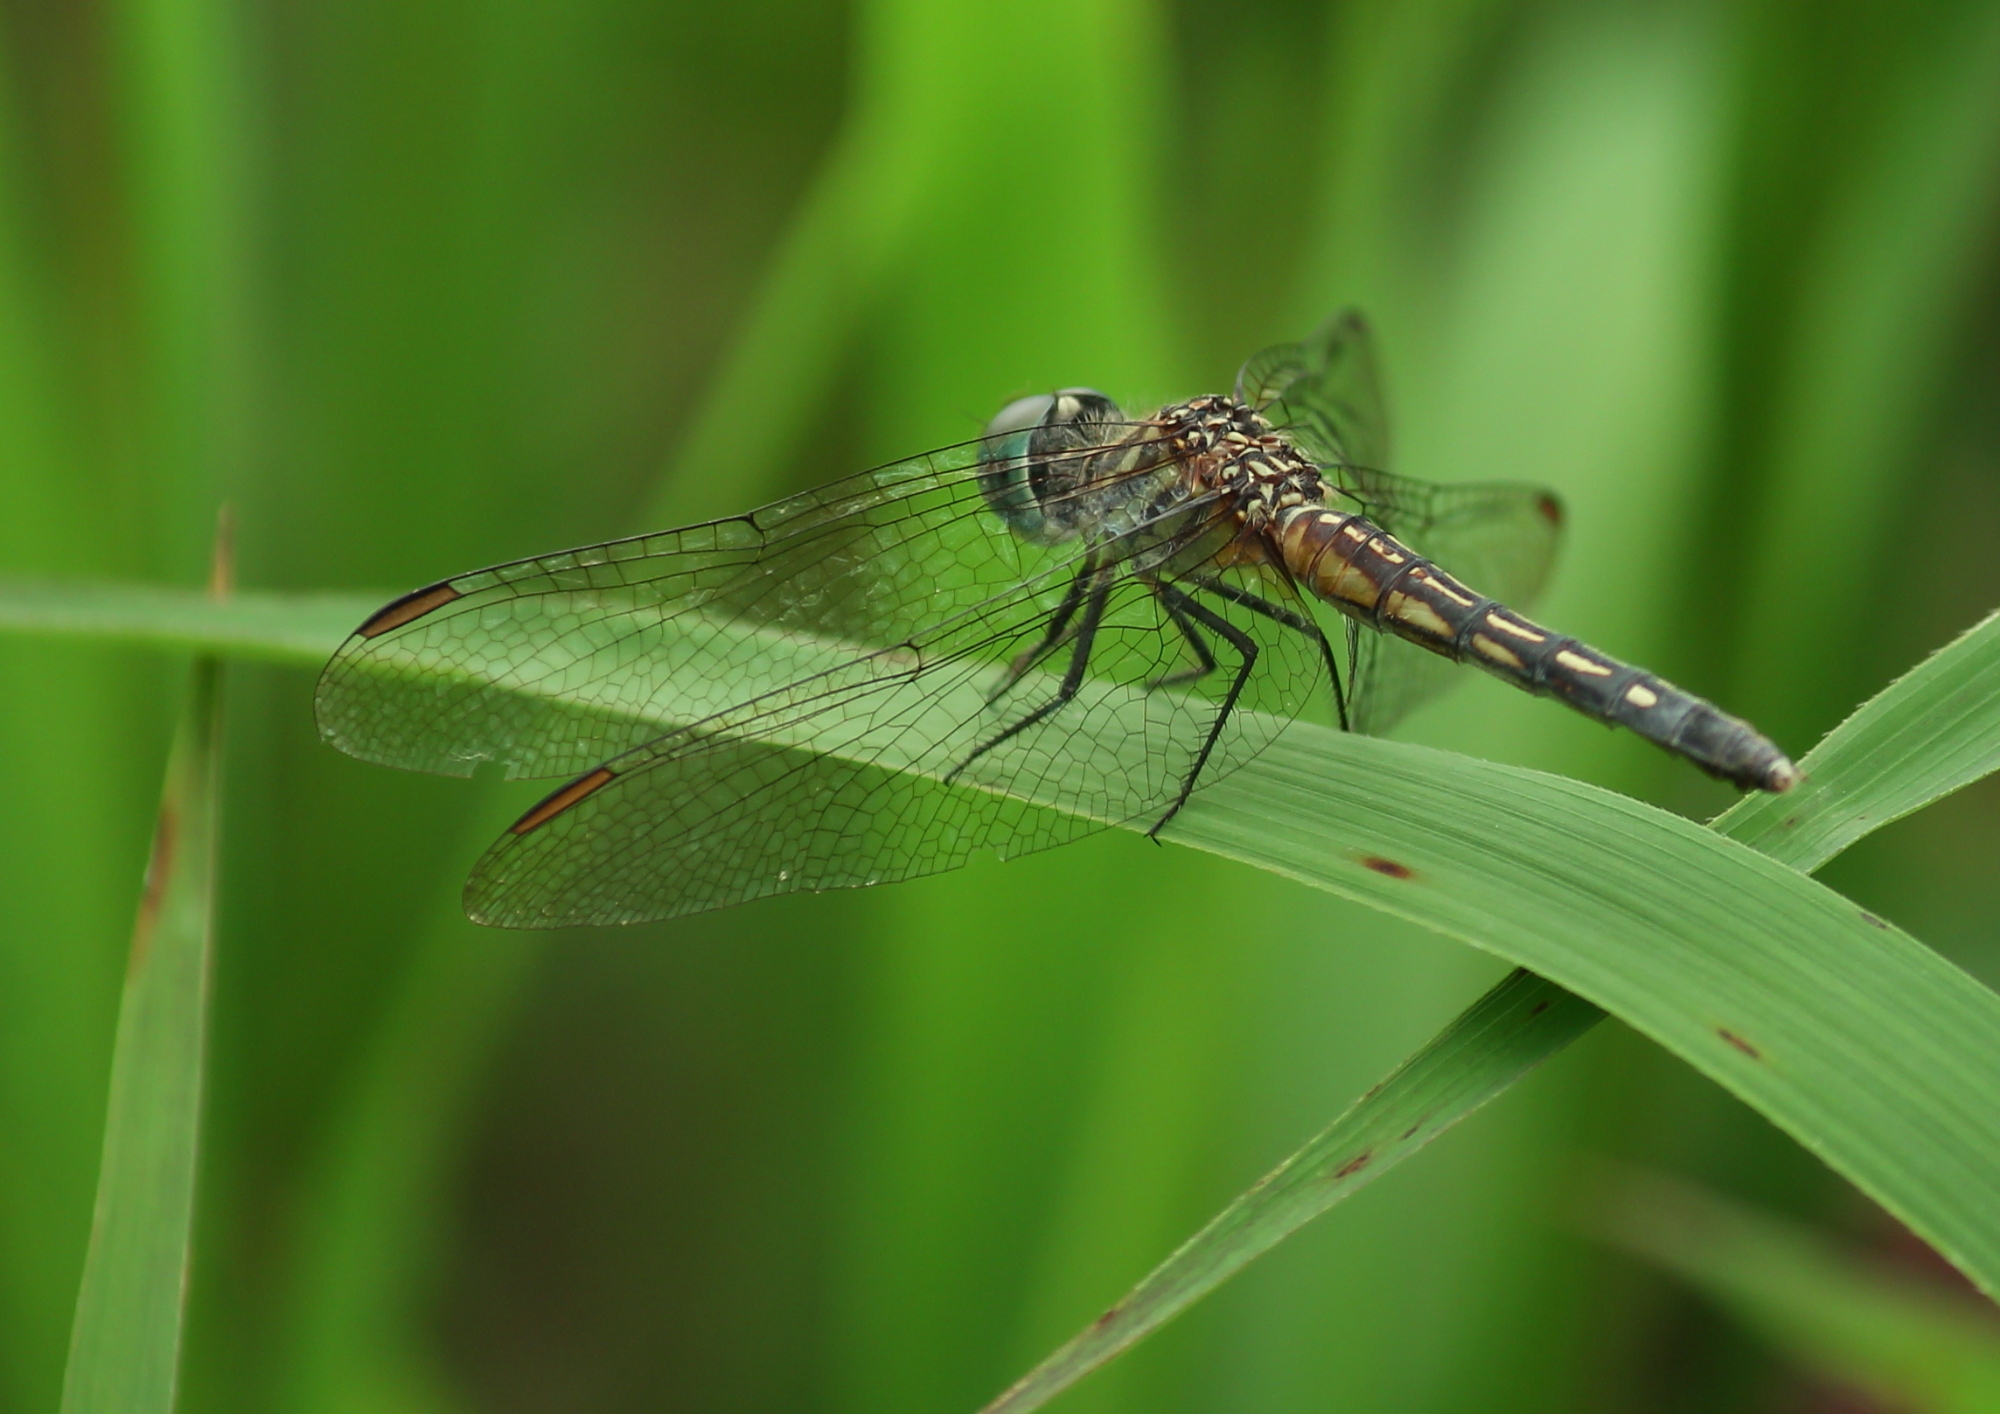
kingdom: Animalia
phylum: Arthropoda
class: Insecta
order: Odonata
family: Libellulidae
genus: Pachydiplax
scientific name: Pachydiplax longipennis
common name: Blue dasher
